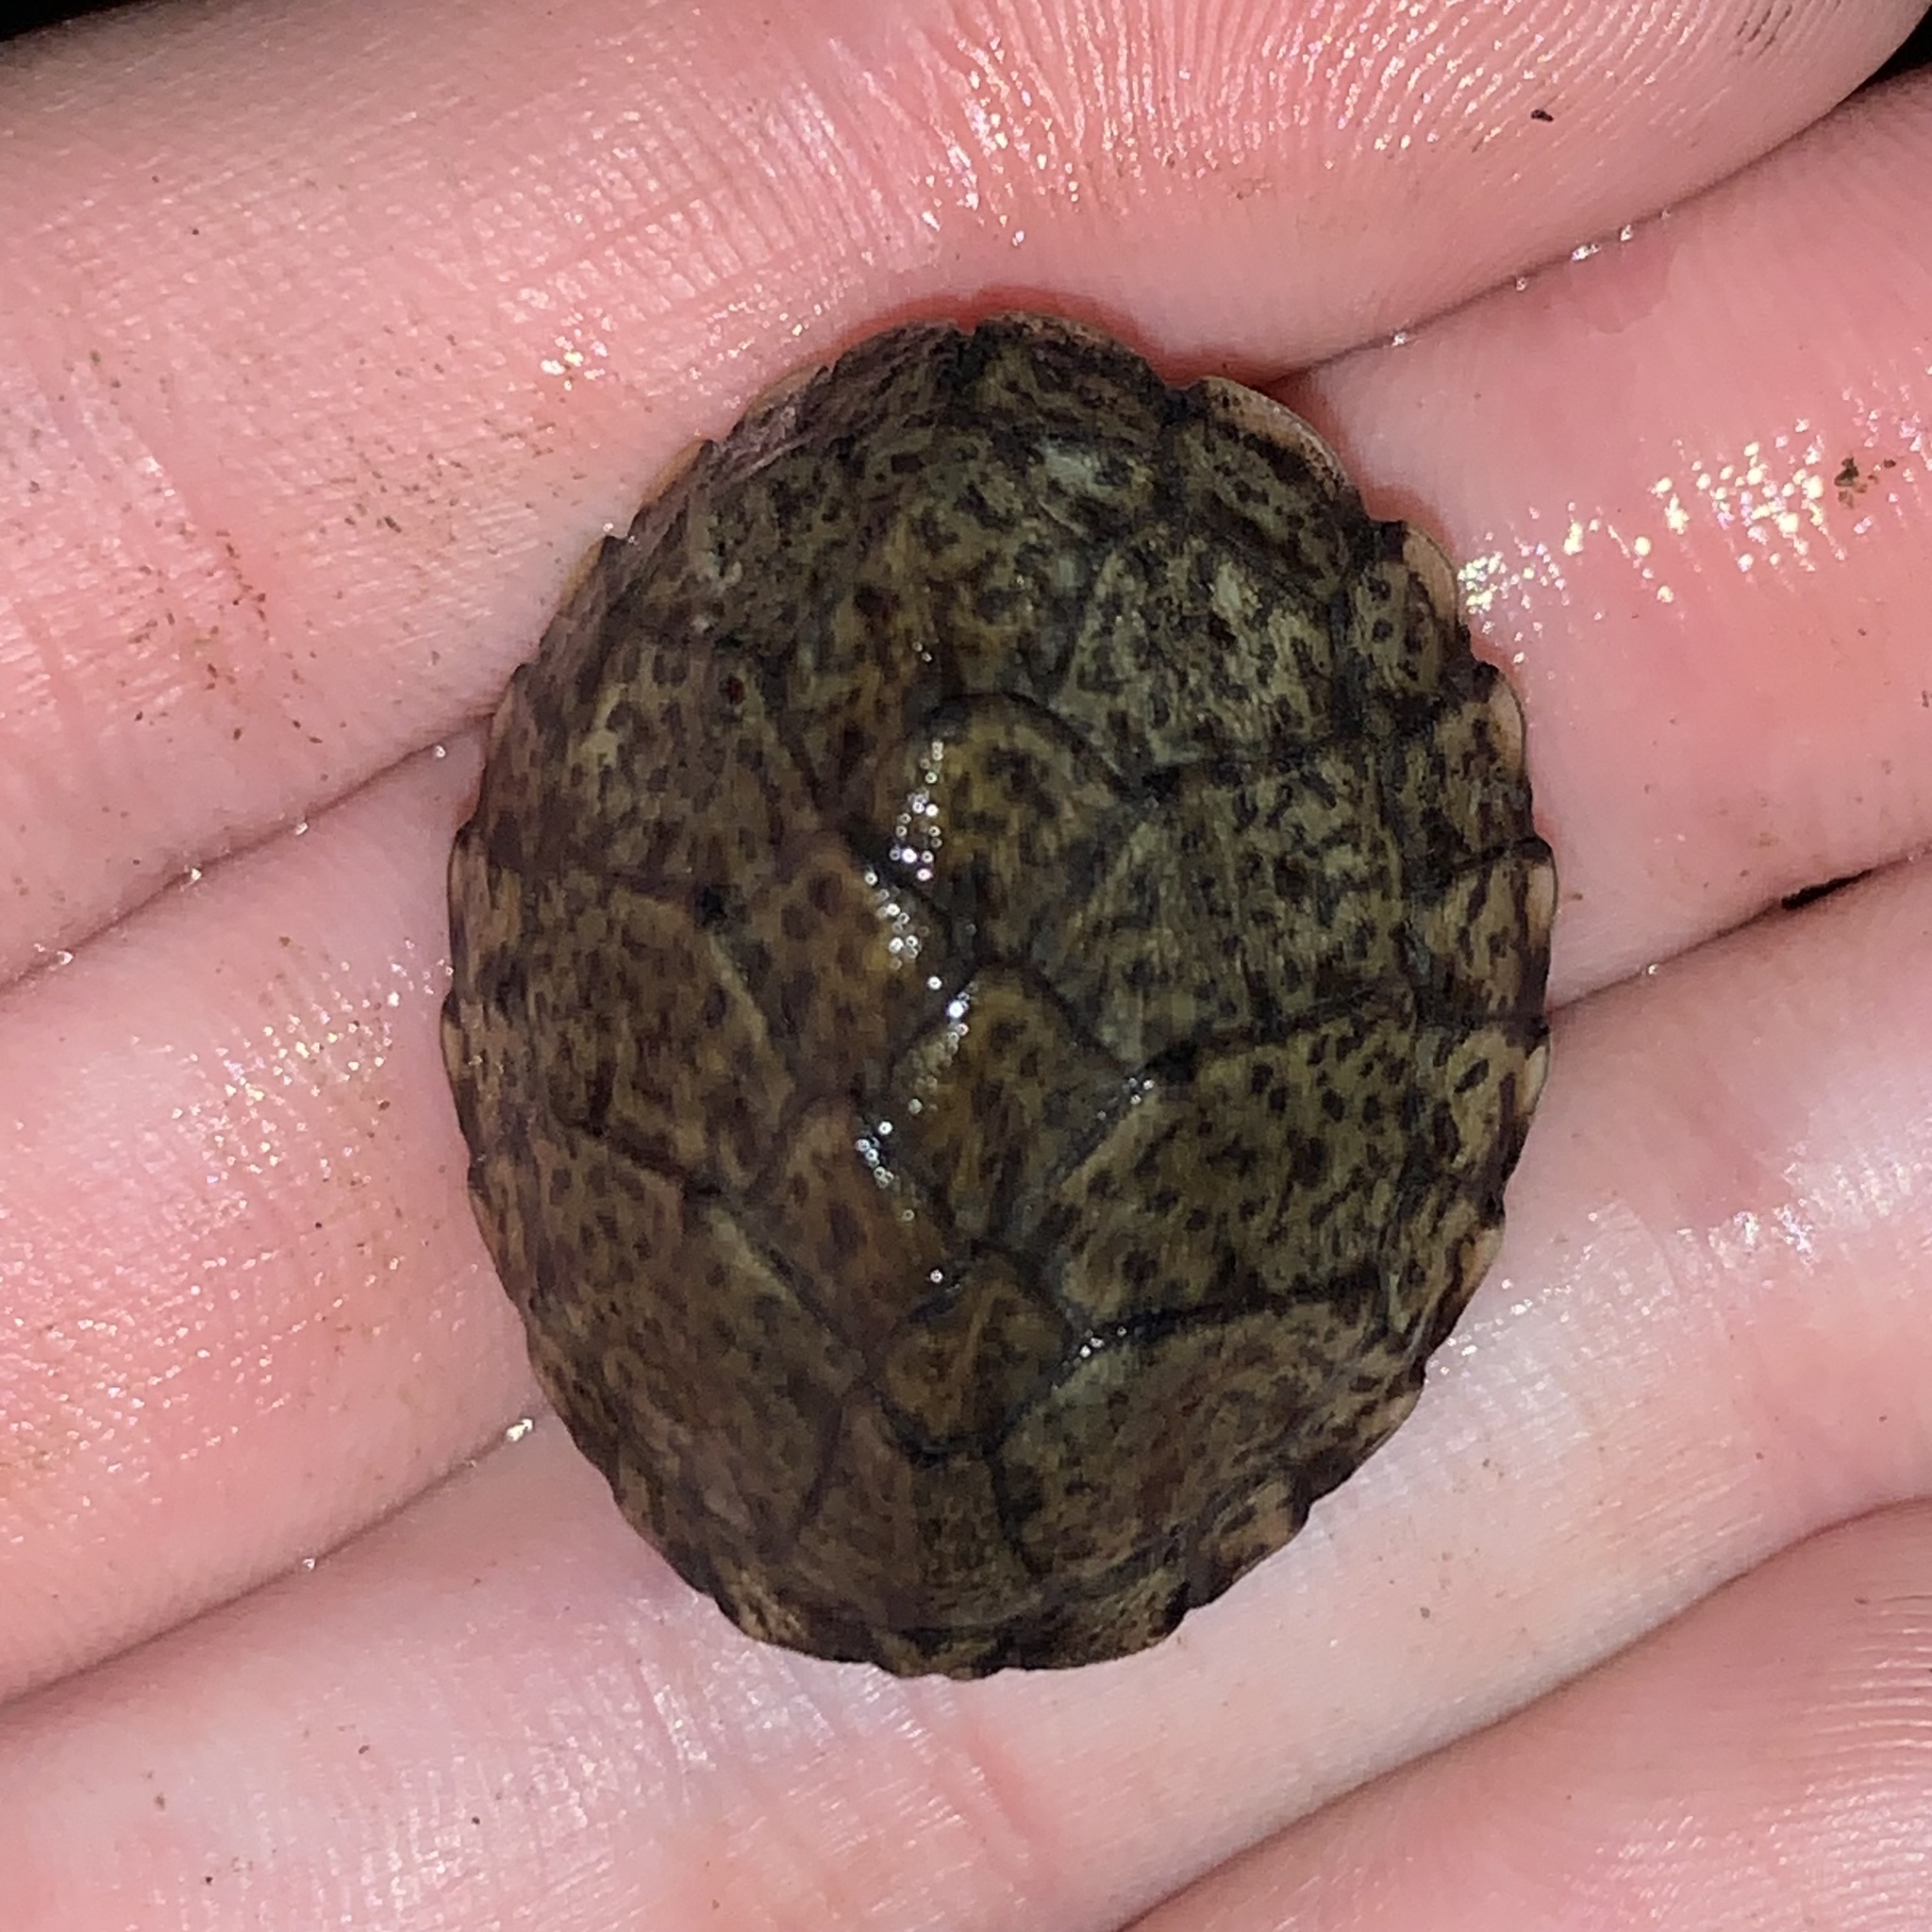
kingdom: Animalia
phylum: Chordata
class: Testudines
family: Kinosternidae
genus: Sternotherus
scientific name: Sternotherus carinatus
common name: Razor-backed musk turtle
